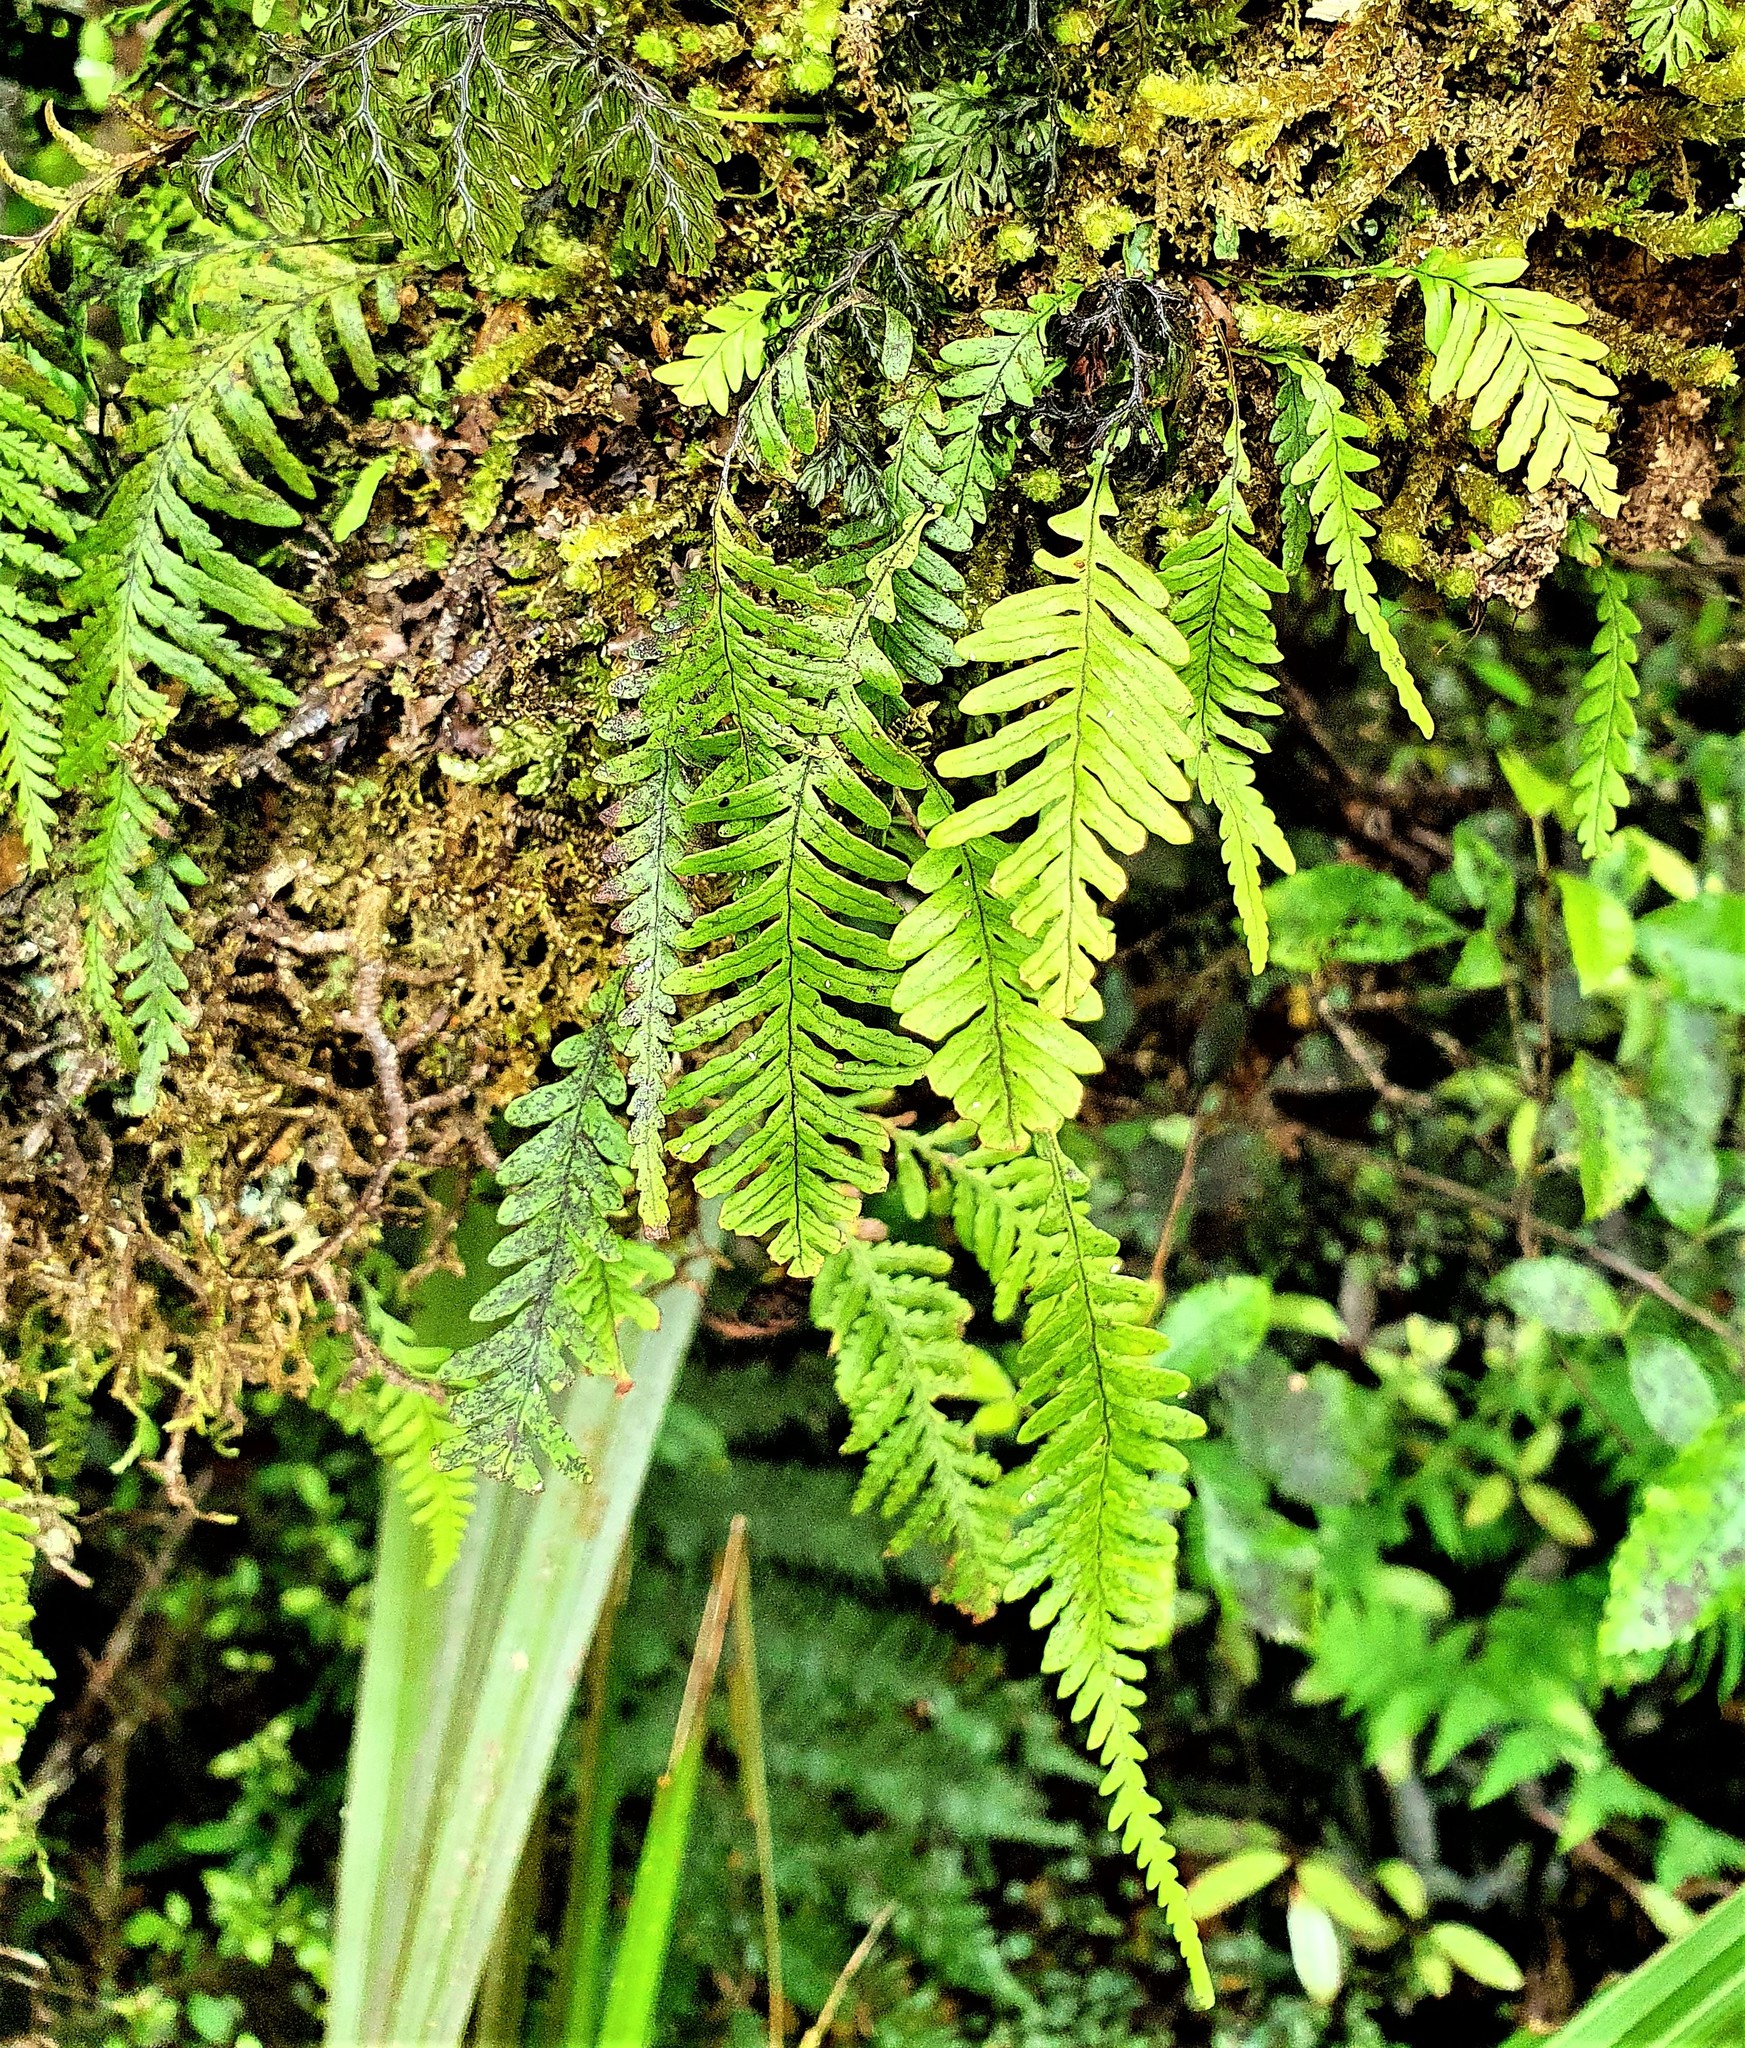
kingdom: Plantae
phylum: Tracheophyta
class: Polypodiopsida
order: Polypodiales
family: Polypodiaceae
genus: Notogrammitis
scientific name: Notogrammitis heterophylla
